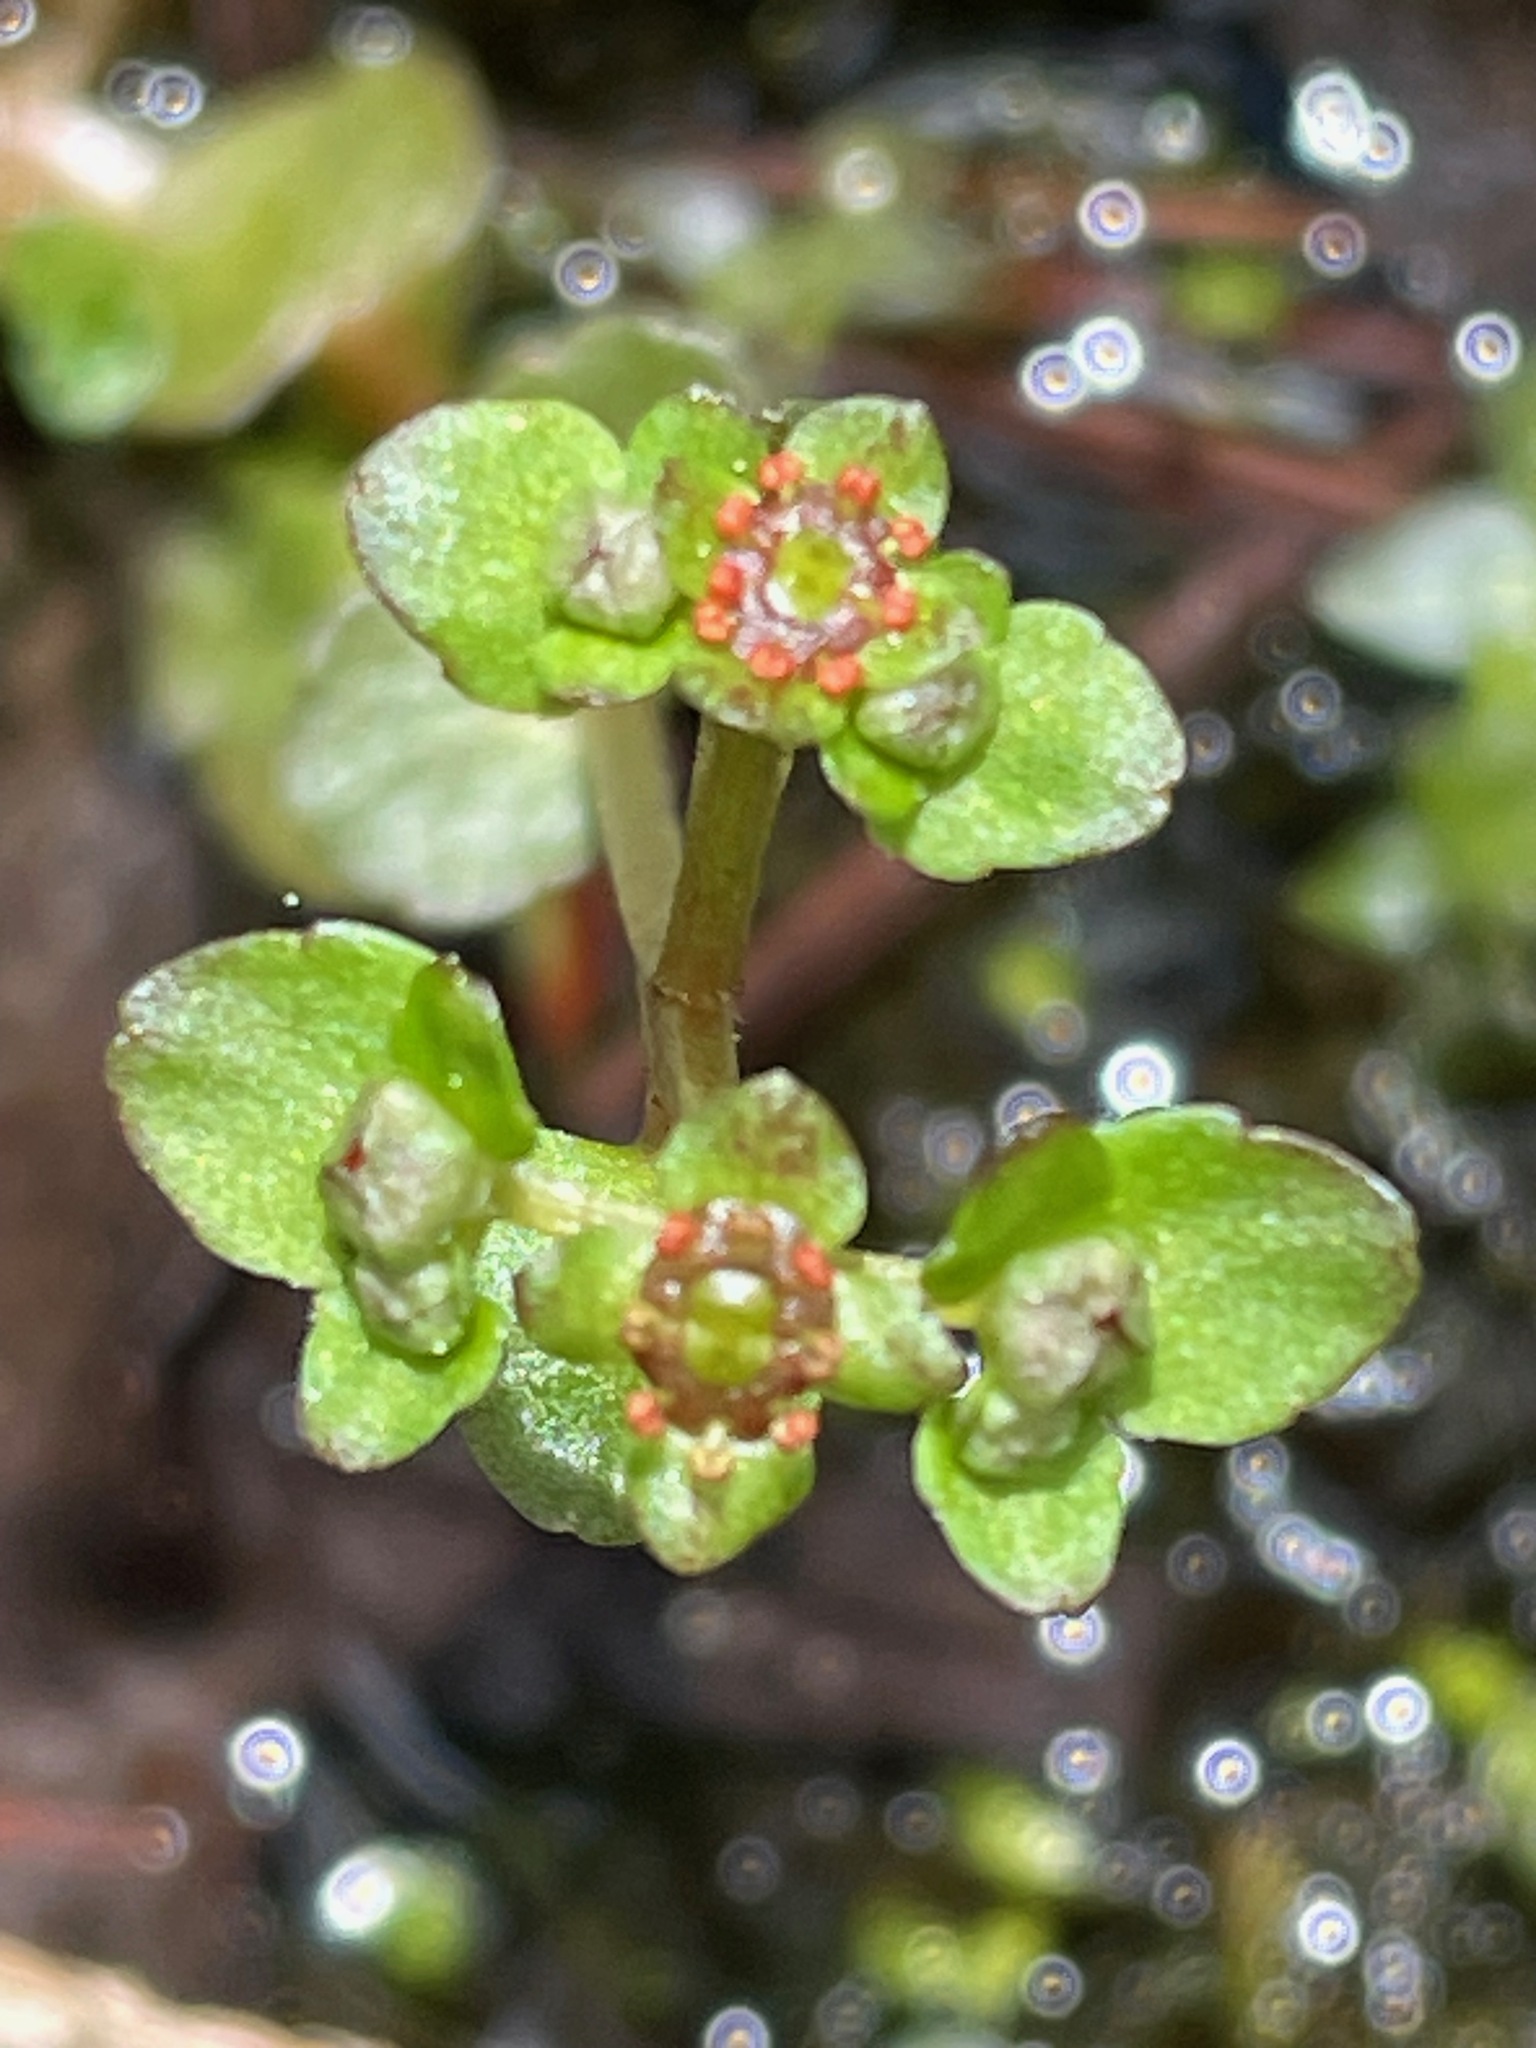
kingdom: Plantae
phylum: Tracheophyta
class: Magnoliopsida
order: Saxifragales
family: Saxifragaceae
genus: Chrysosplenium
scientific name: Chrysosplenium americanum
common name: American golden-saxifrage
